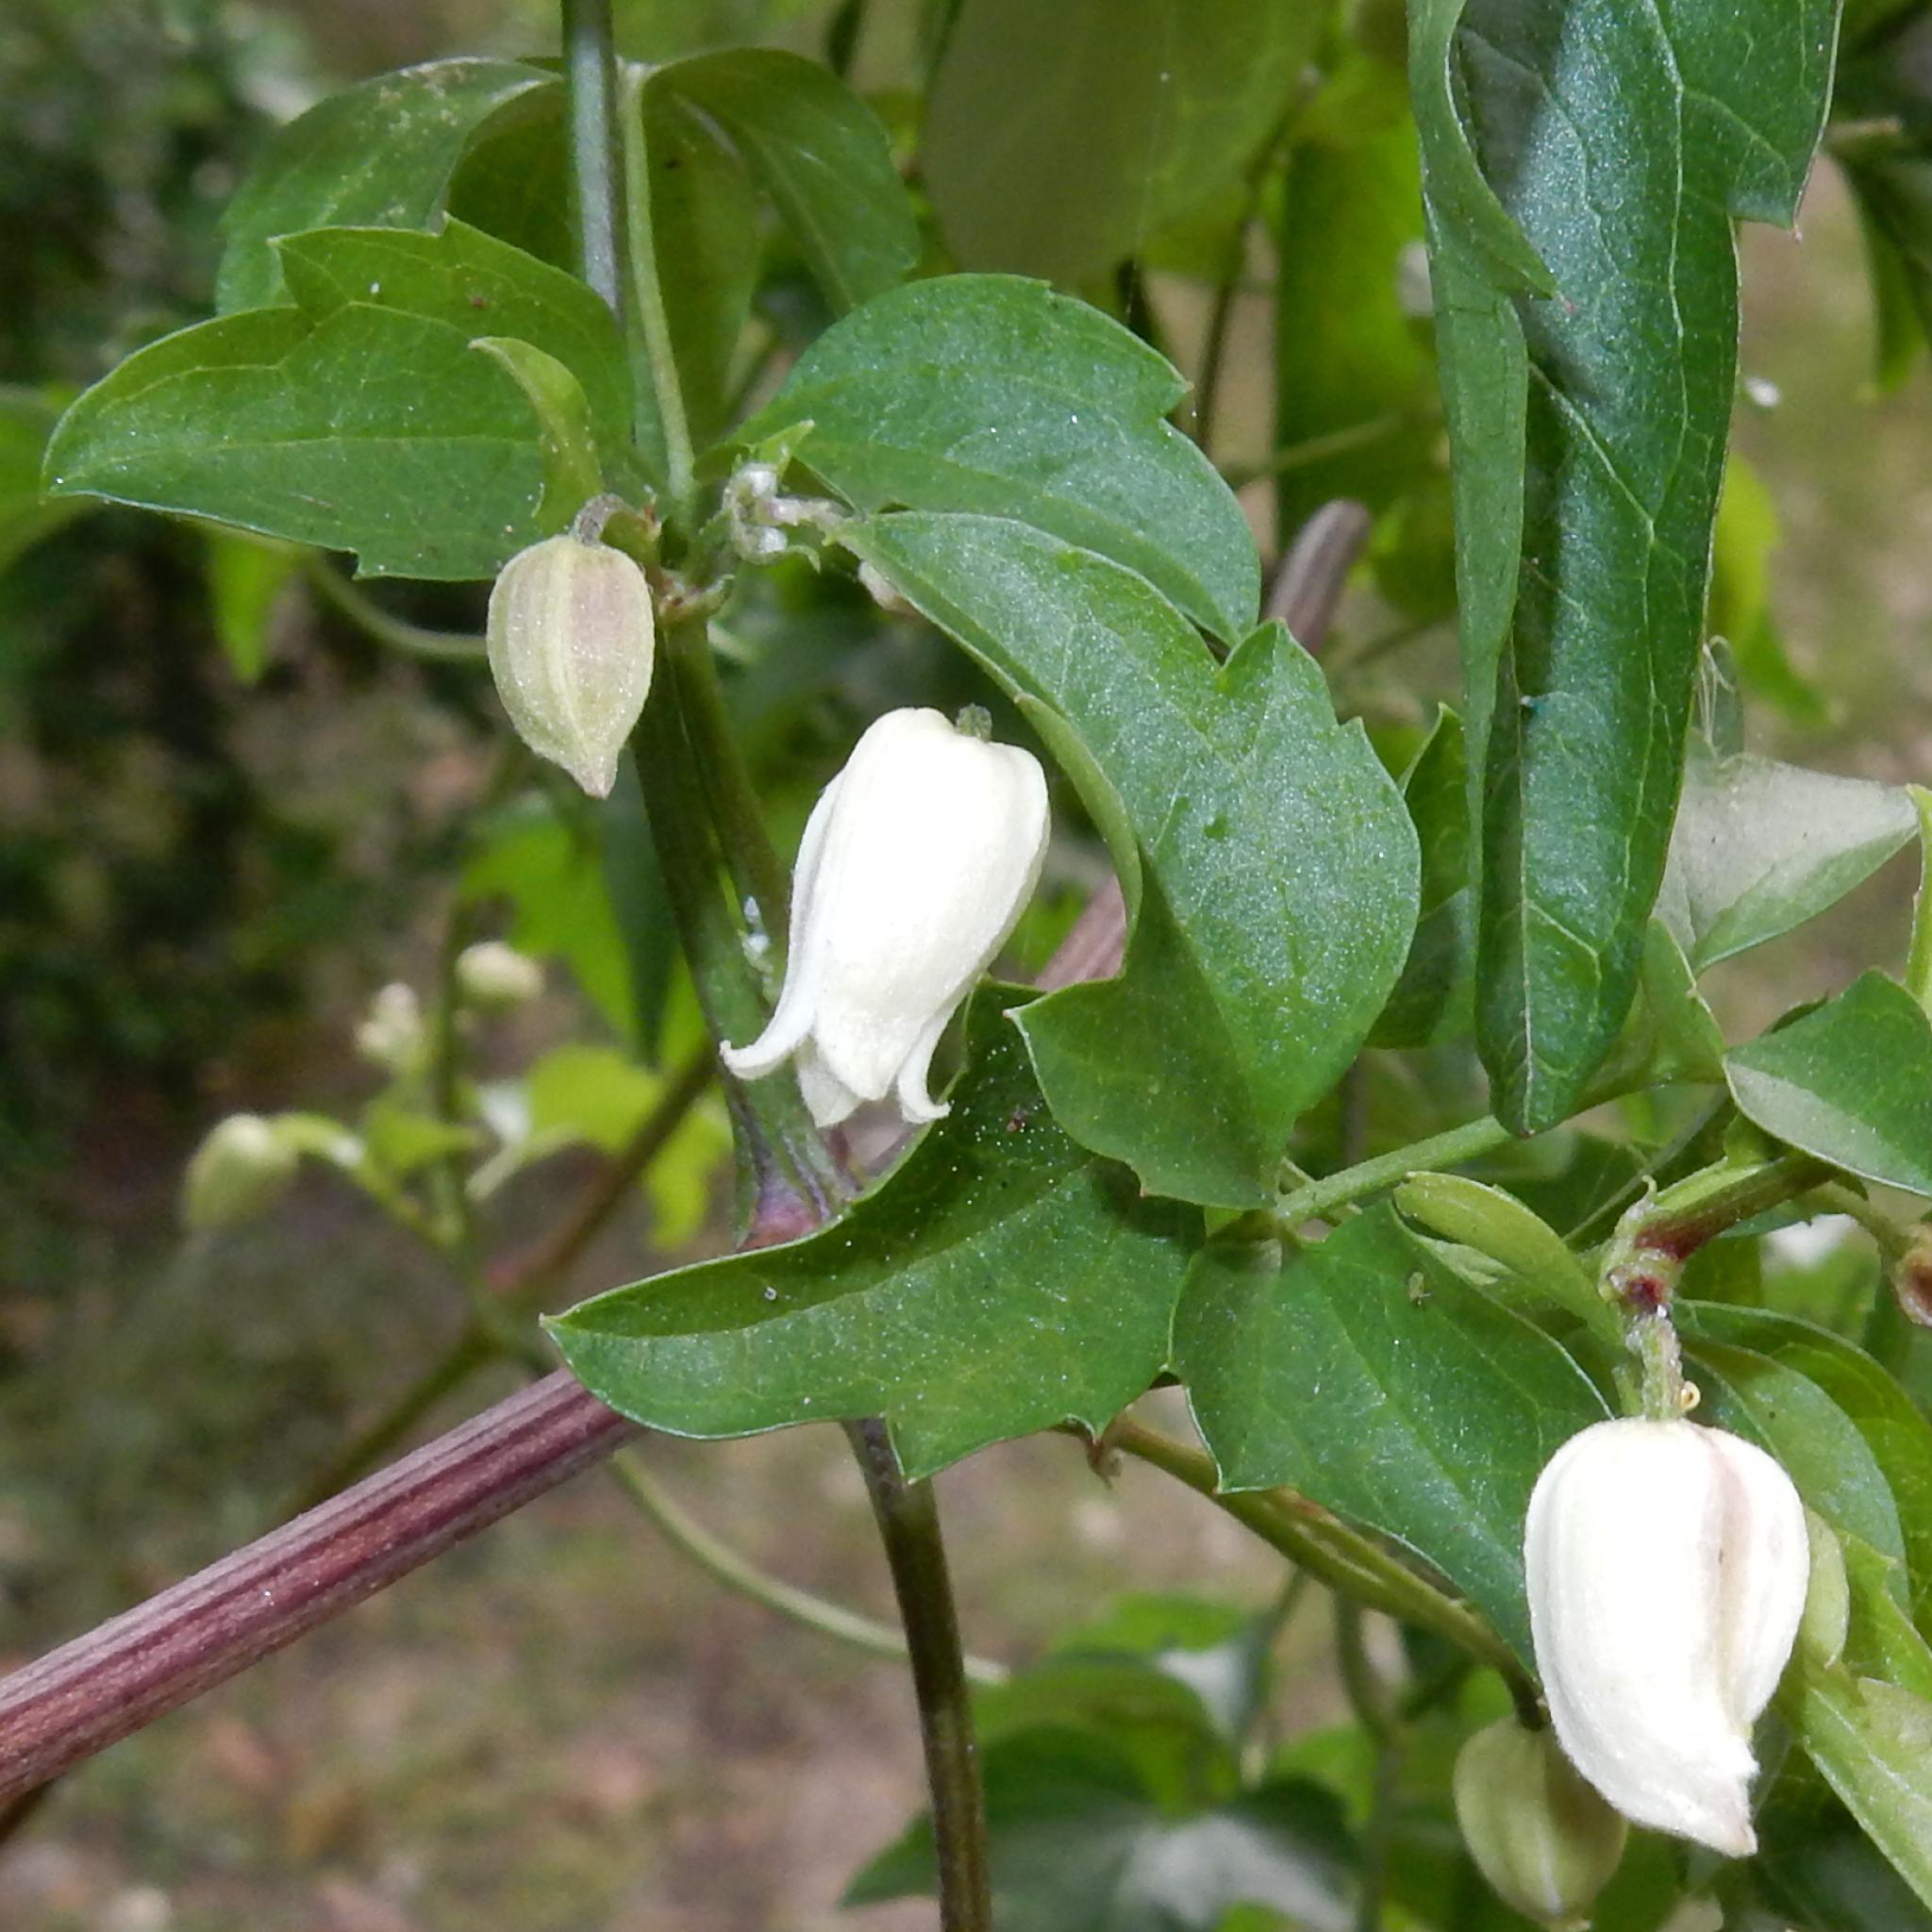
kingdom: Plantae
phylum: Tracheophyta
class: Magnoliopsida
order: Ranunculales
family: Ranunculaceae
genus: Clematis
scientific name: Clematis brachiata
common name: Traveler's-joy
